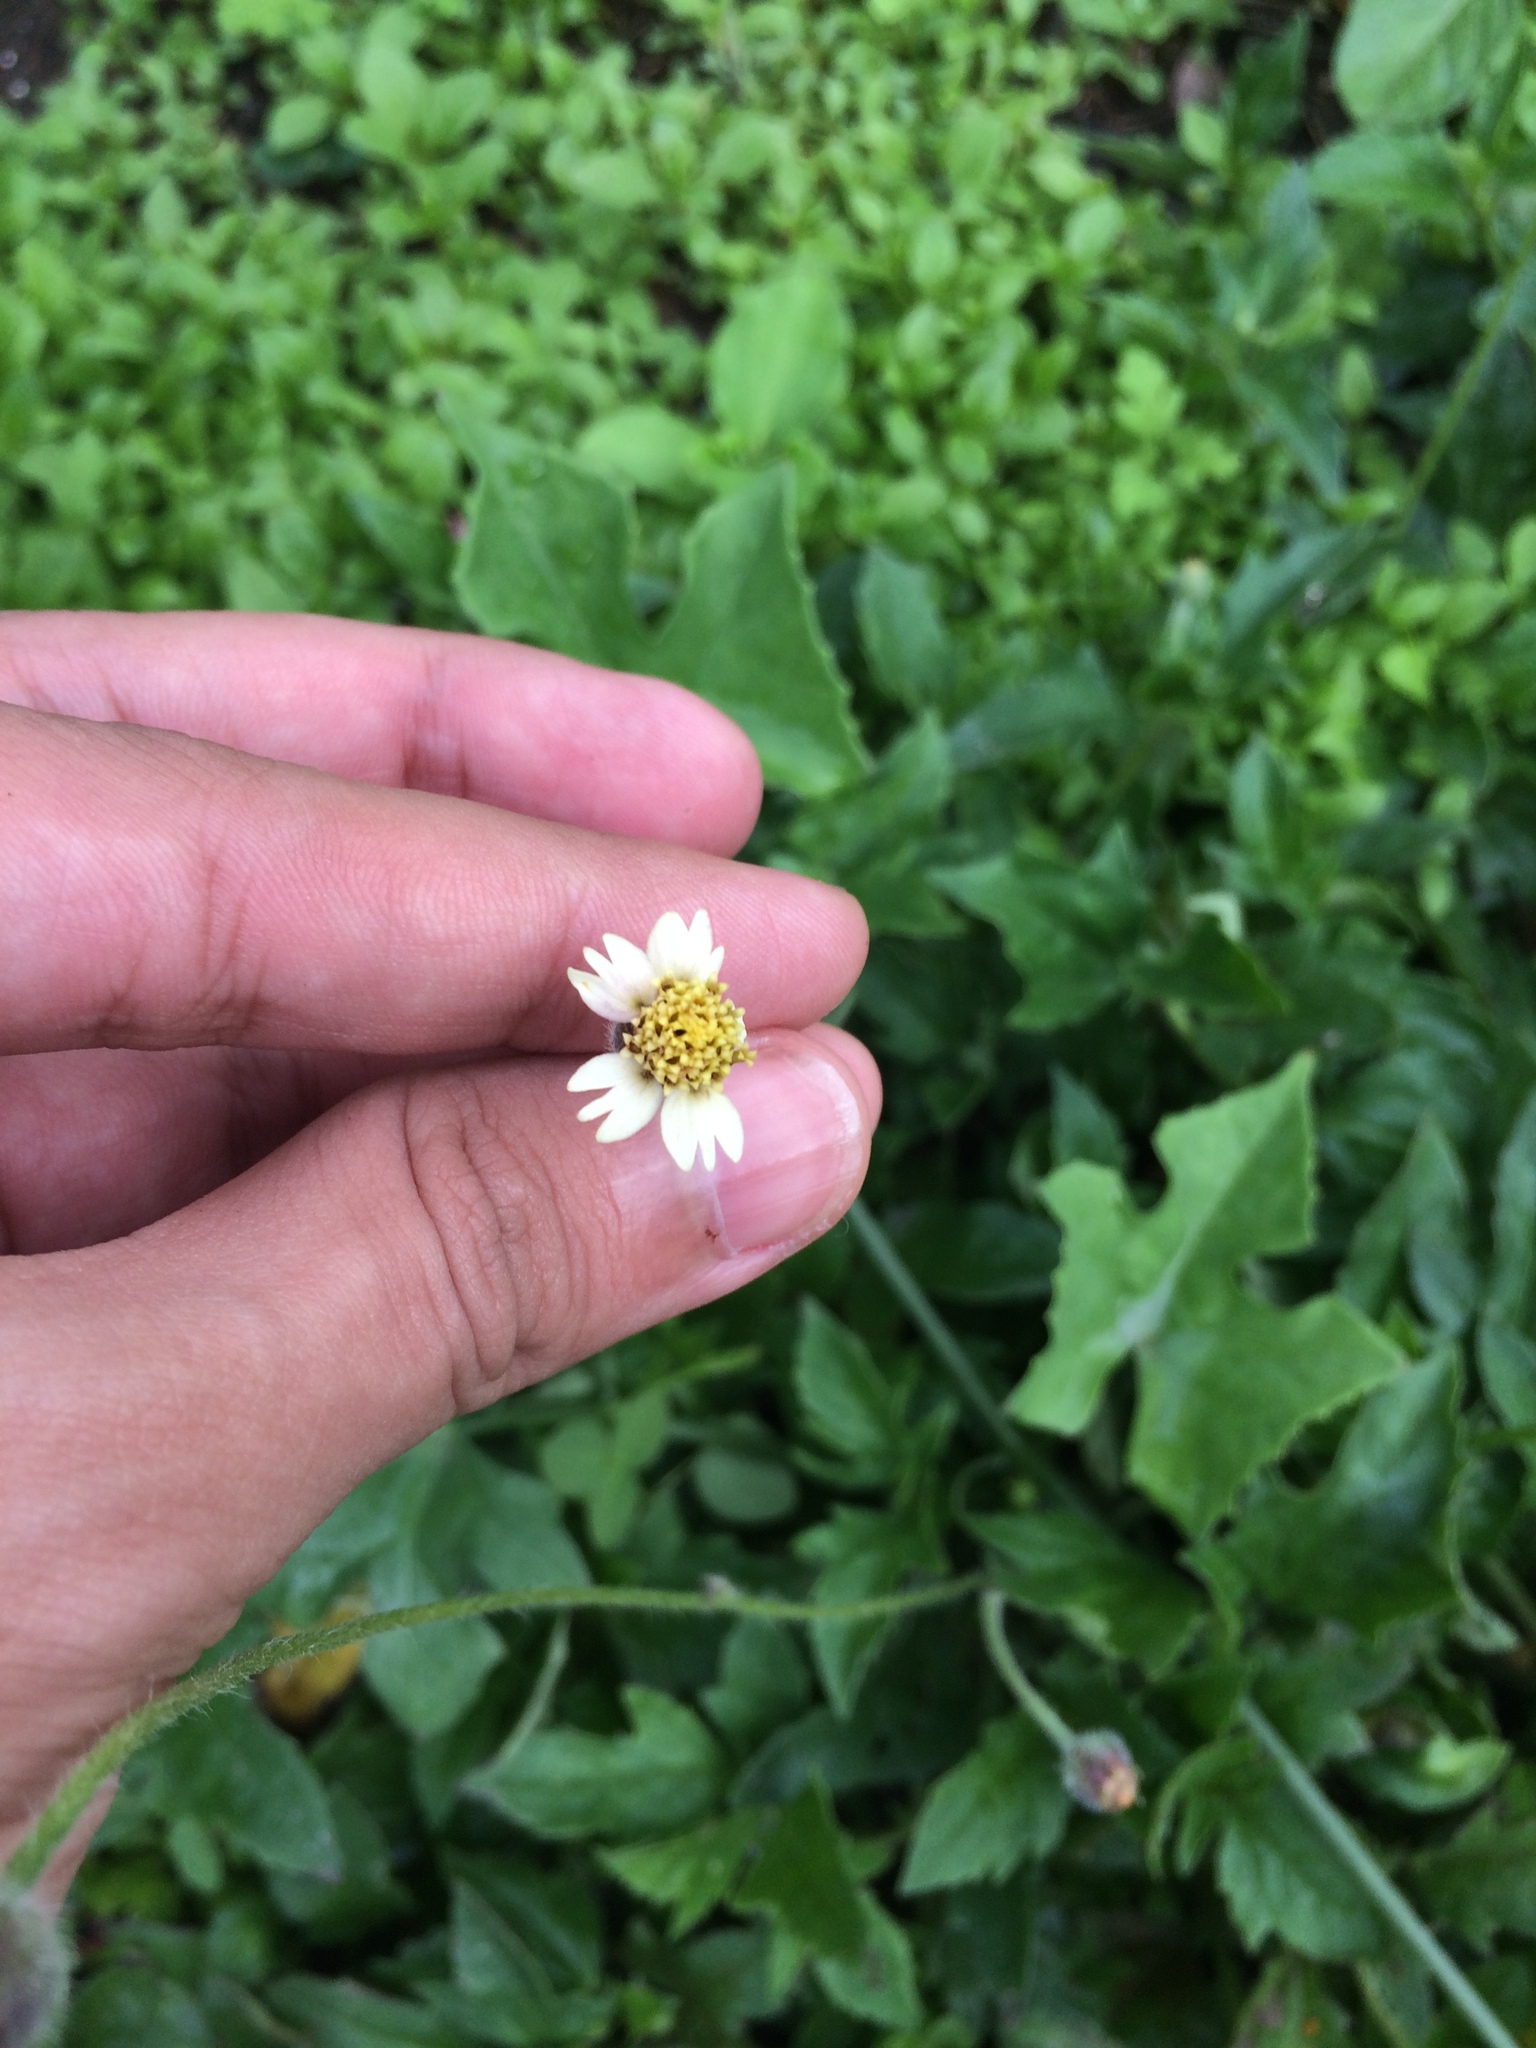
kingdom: Plantae
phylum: Tracheophyta
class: Magnoliopsida
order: Asterales
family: Asteraceae
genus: Tridax
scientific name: Tridax procumbens
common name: Coatbuttons
